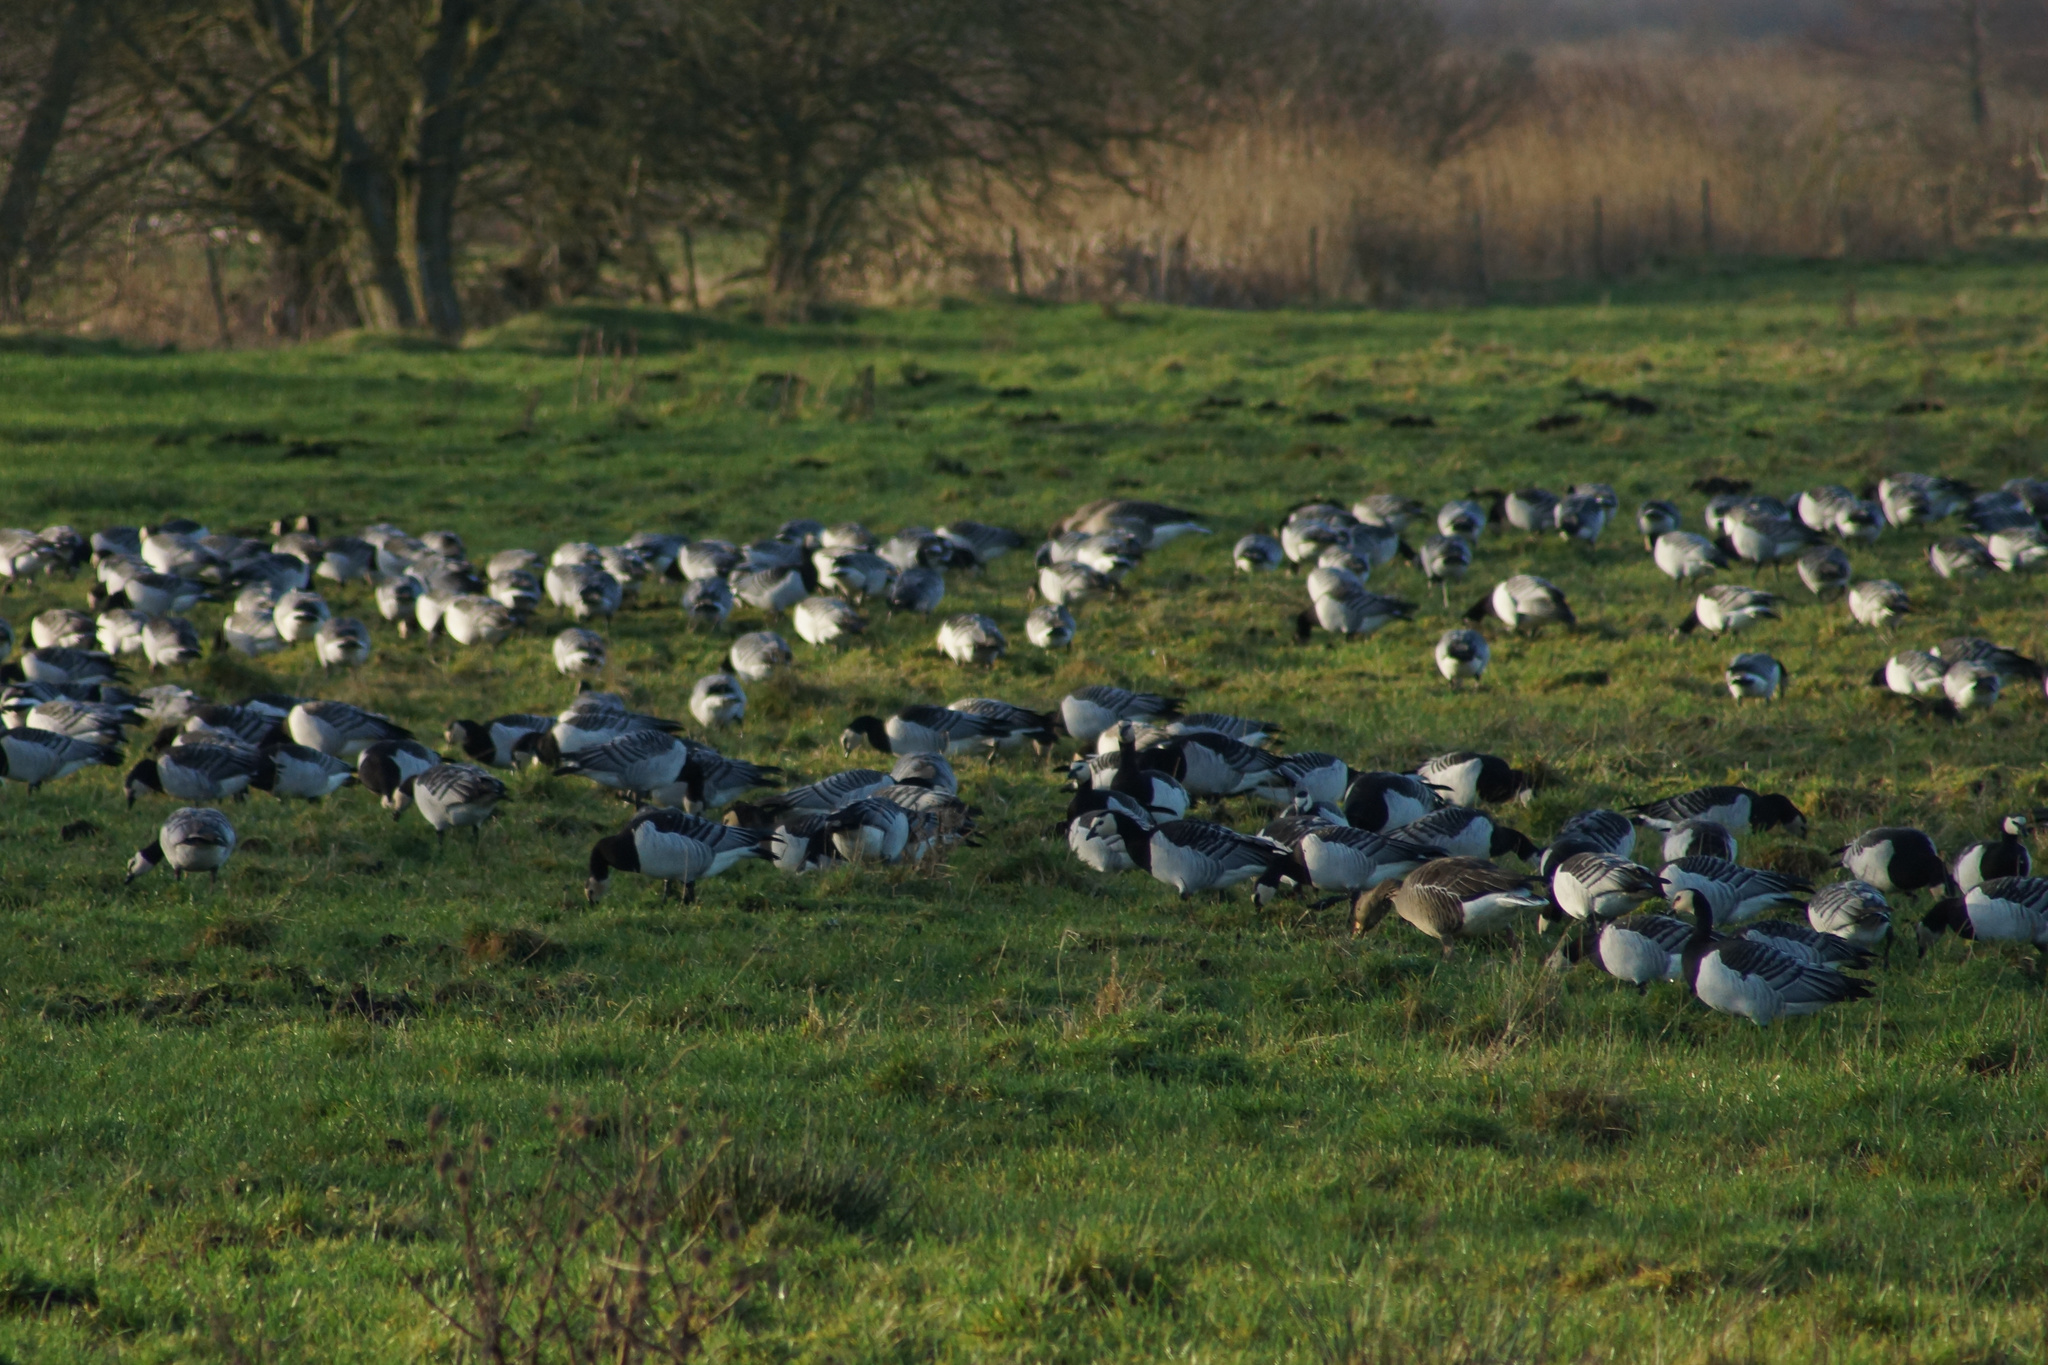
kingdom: Animalia
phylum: Chordata
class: Aves
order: Anseriformes
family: Anatidae
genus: Branta
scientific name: Branta leucopsis
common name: Barnacle goose
